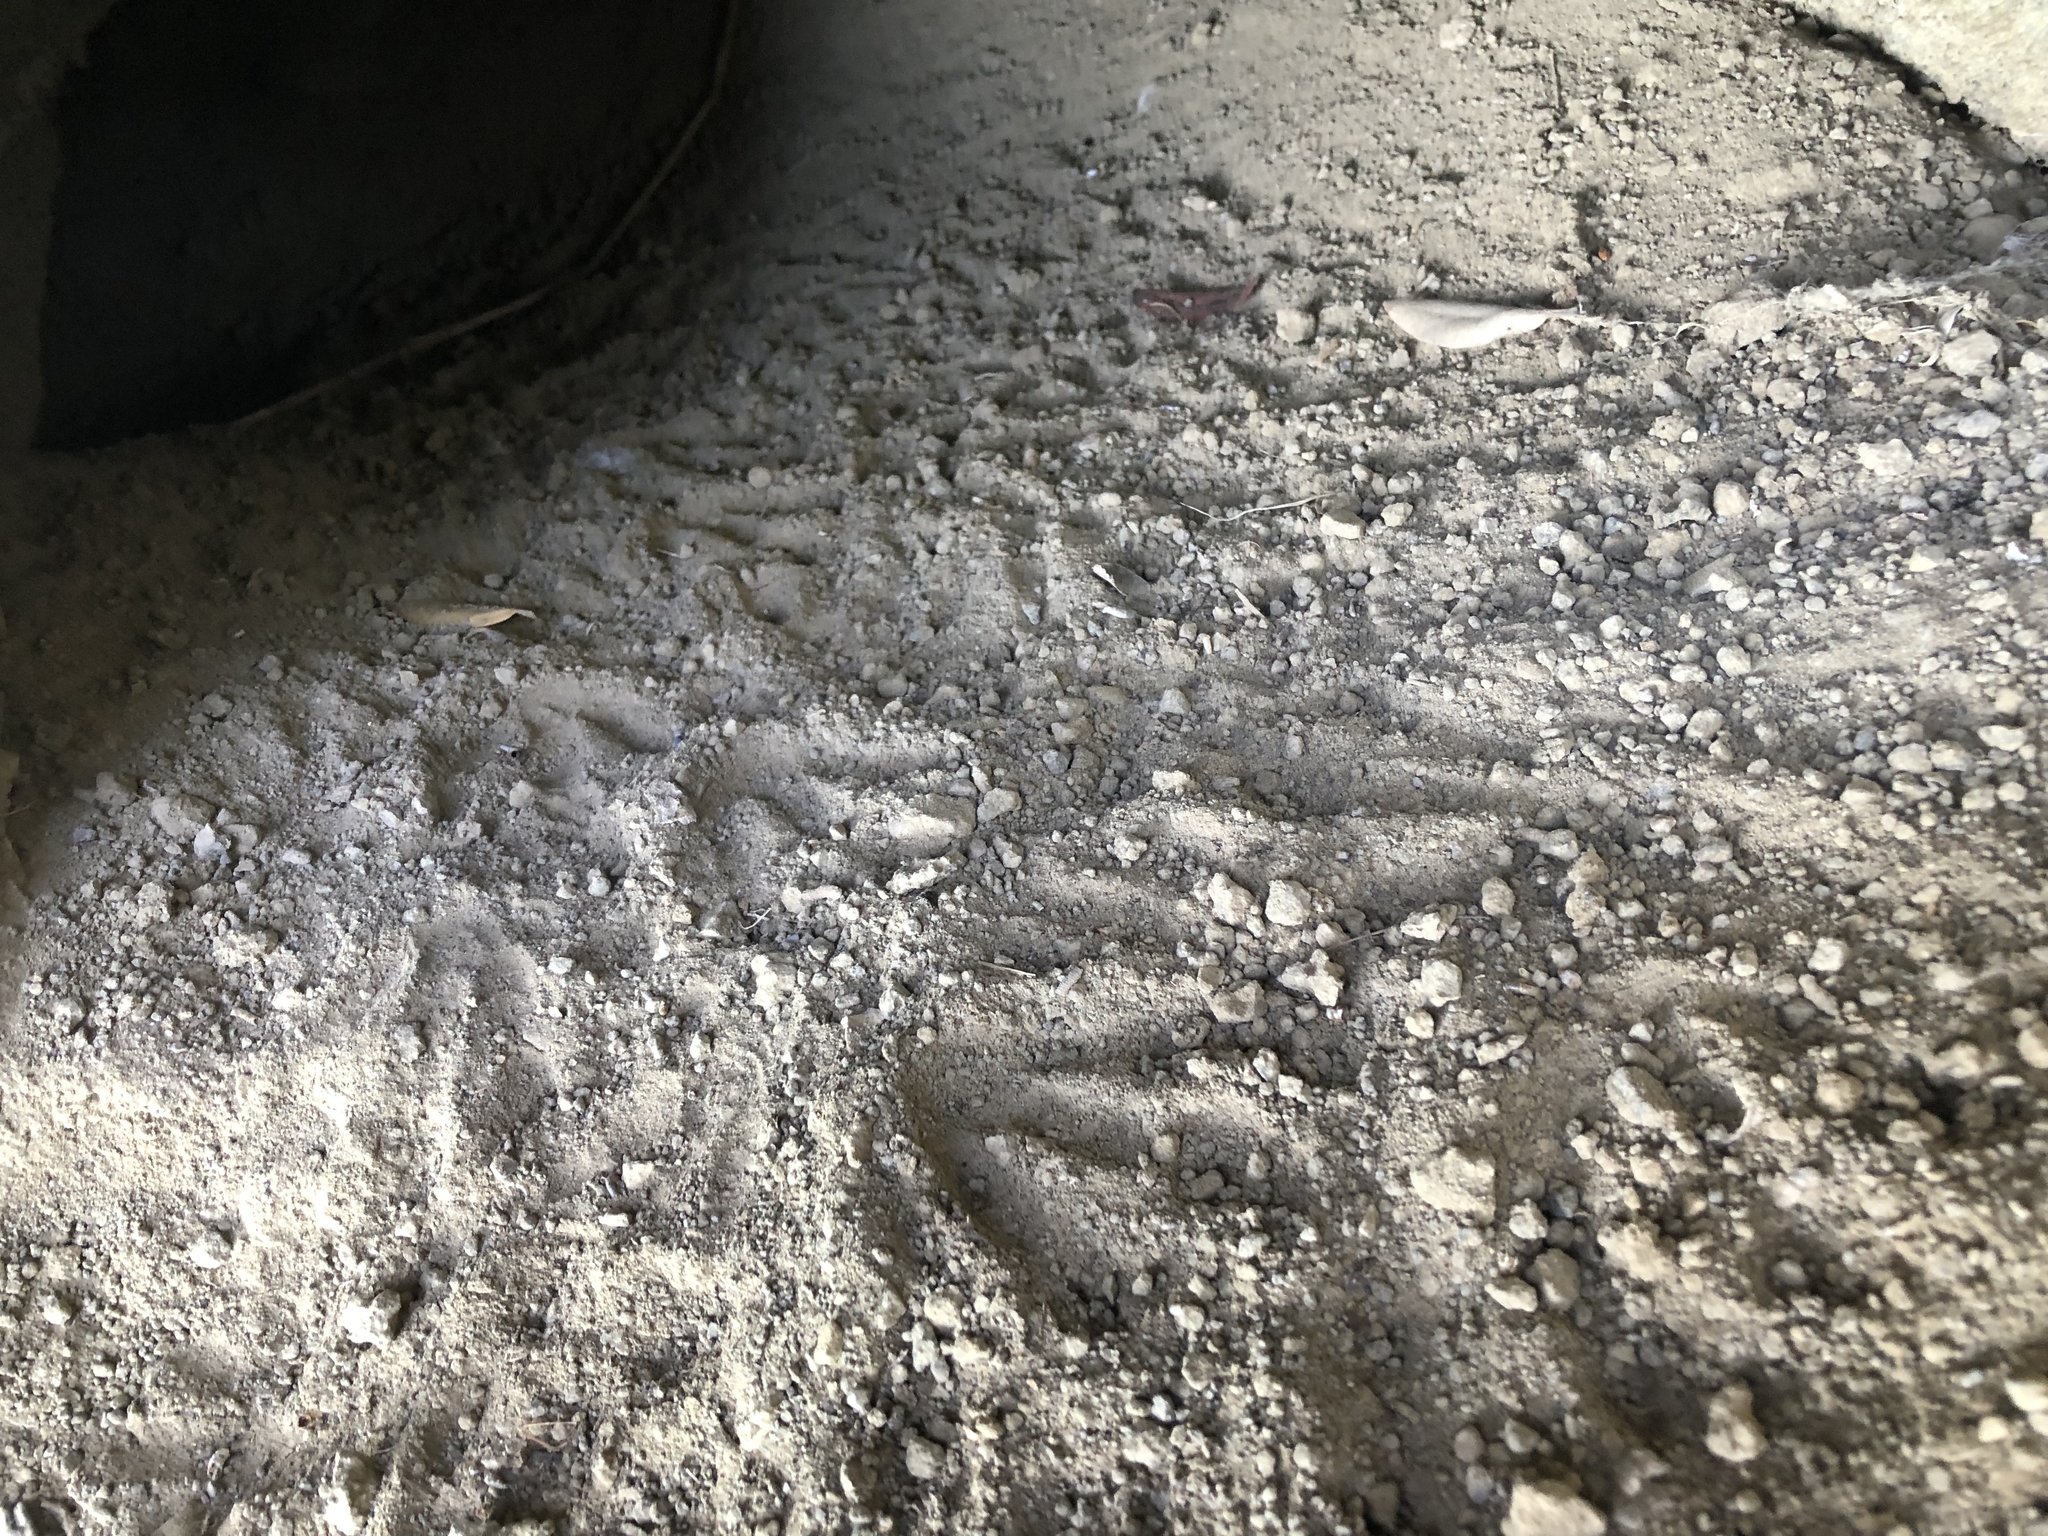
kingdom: Animalia
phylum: Chordata
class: Aves
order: Sphenisciformes
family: Spheniscidae
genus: Eudyptula
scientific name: Eudyptula minor
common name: Little penguin
